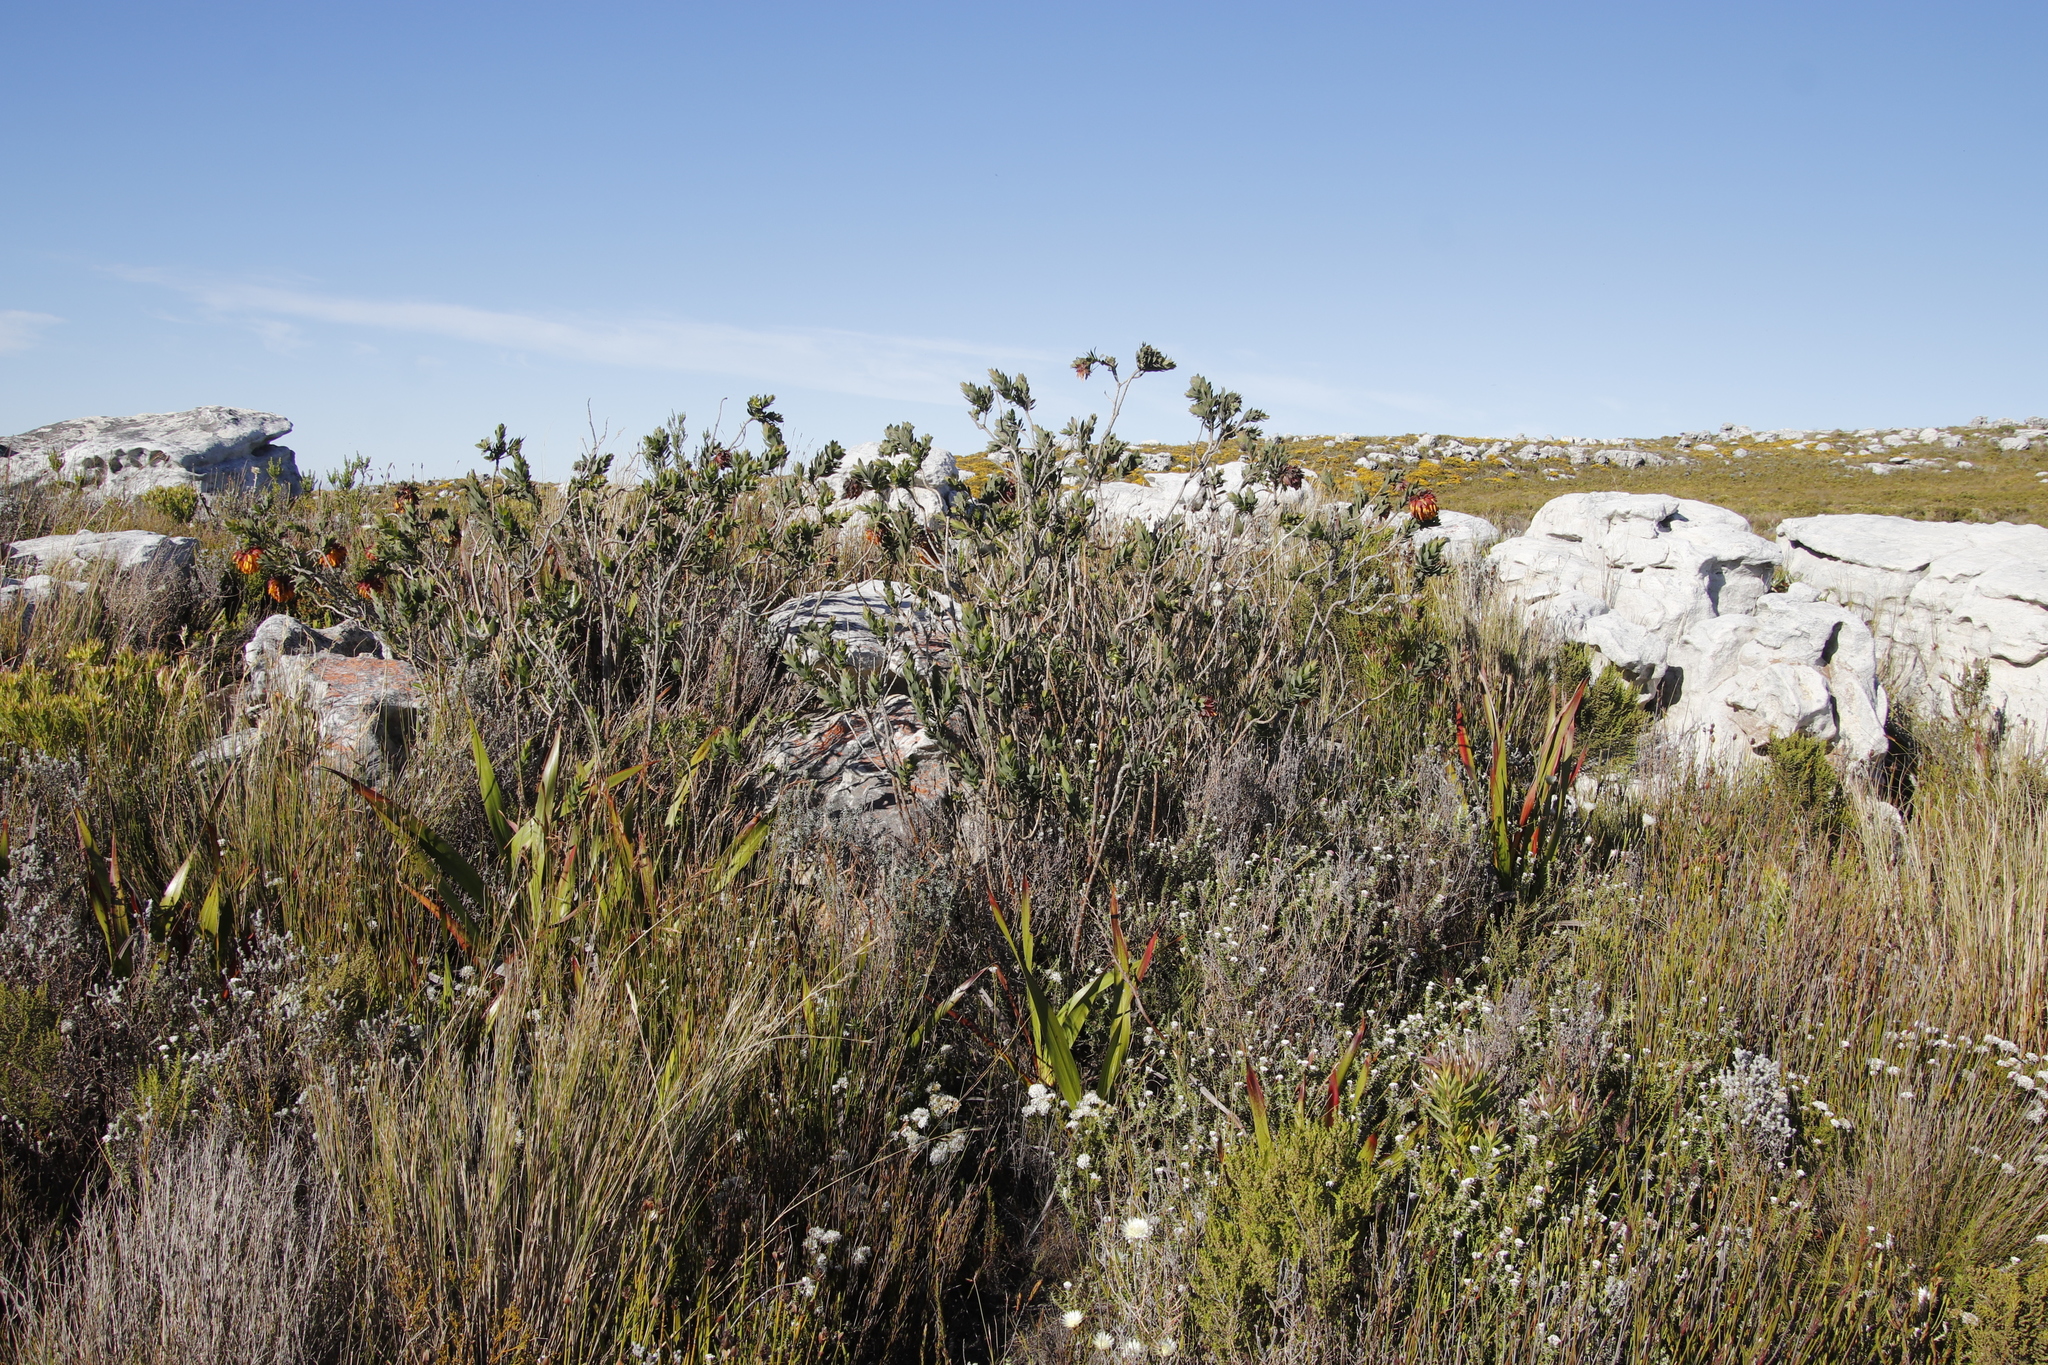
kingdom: Plantae
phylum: Tracheophyta
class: Magnoliopsida
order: Fabales
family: Fabaceae
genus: Liparia
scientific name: Liparia splendens
